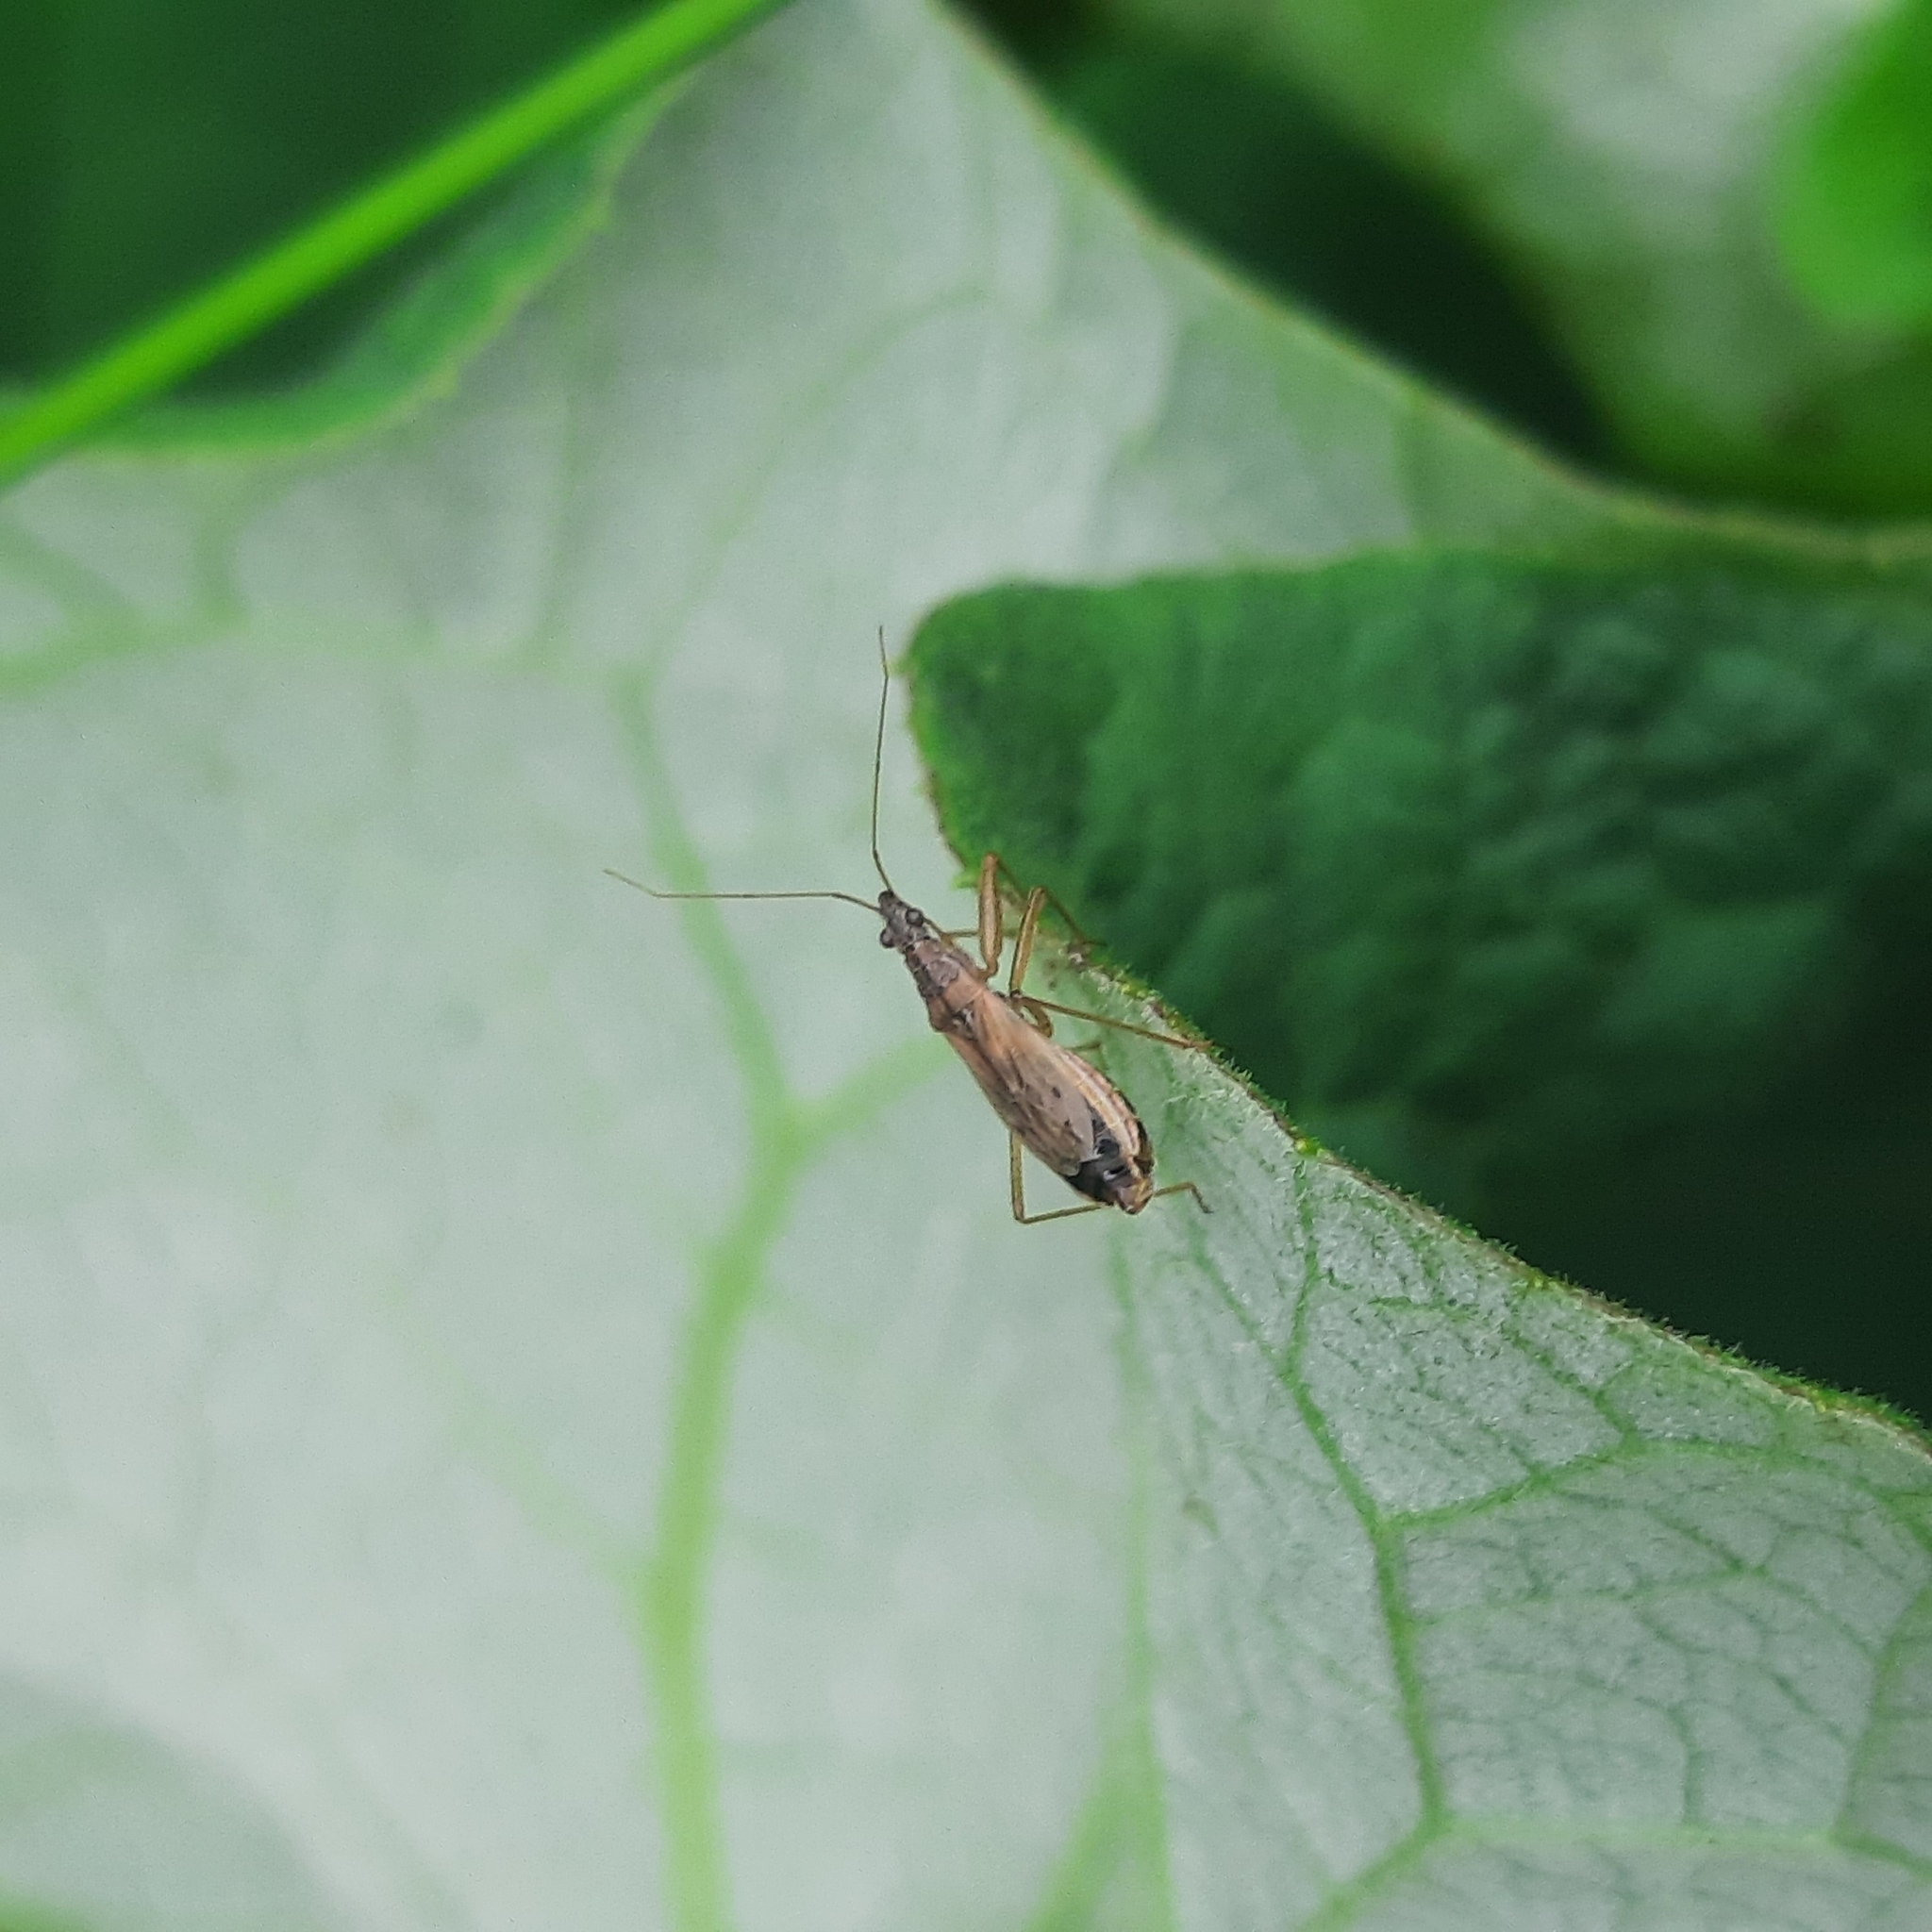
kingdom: Animalia
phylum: Arthropoda
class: Insecta
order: Hemiptera
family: Nabidae
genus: Nabis
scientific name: Nabis
